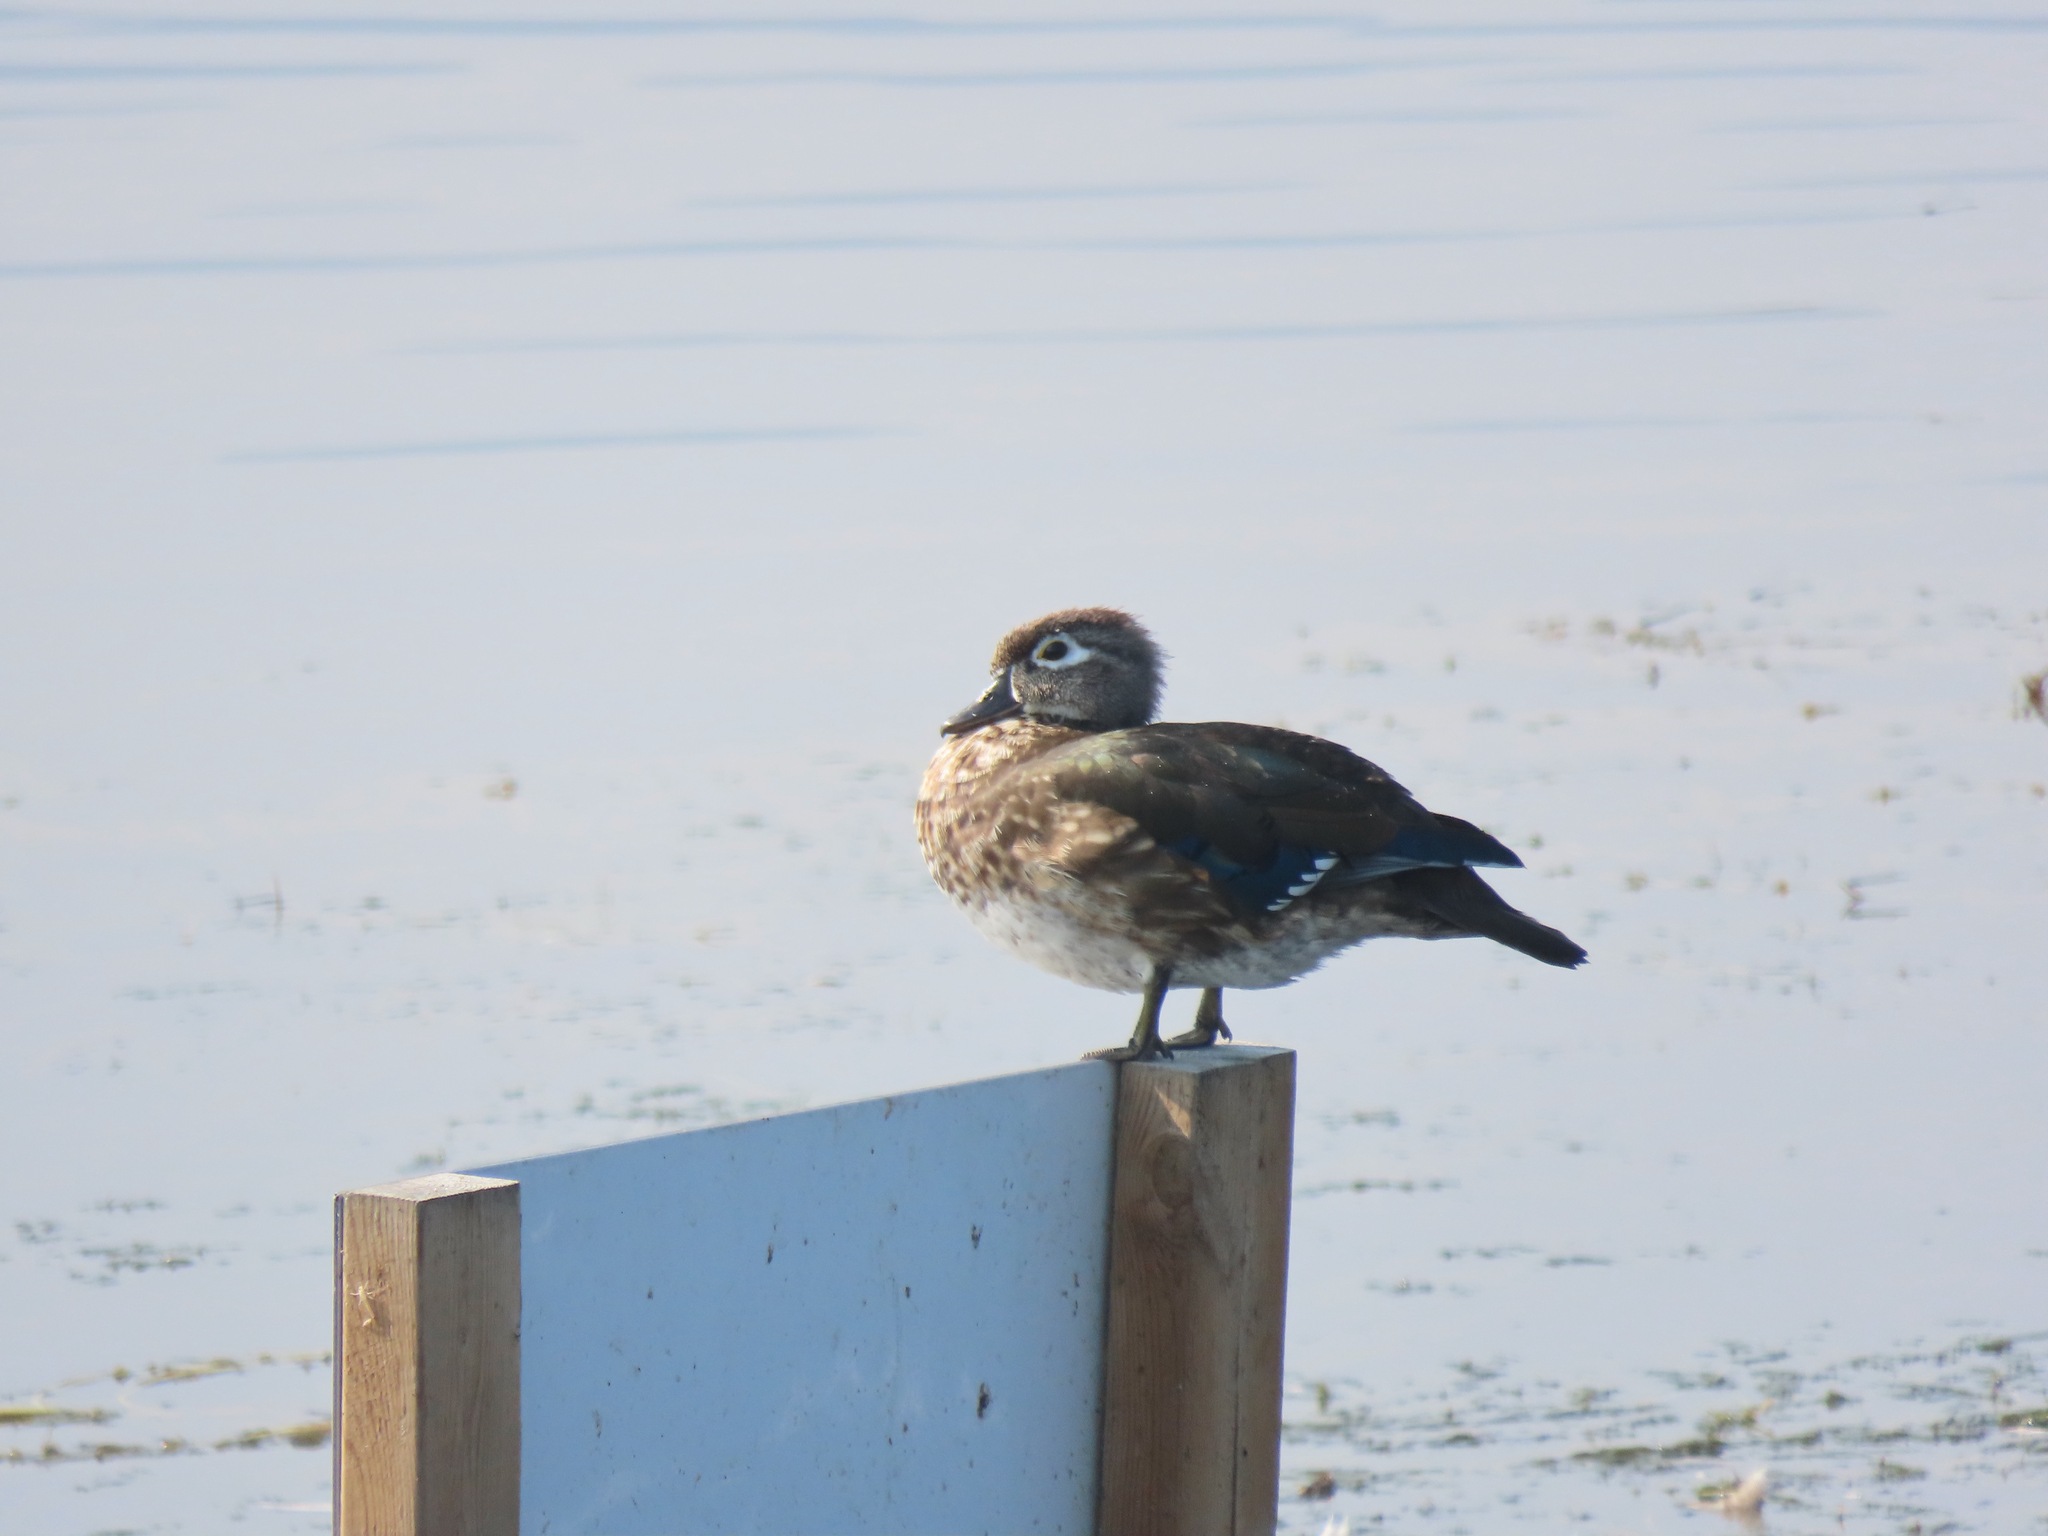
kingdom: Animalia
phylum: Chordata
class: Aves
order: Anseriformes
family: Anatidae
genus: Aix
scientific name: Aix sponsa
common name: Wood duck
